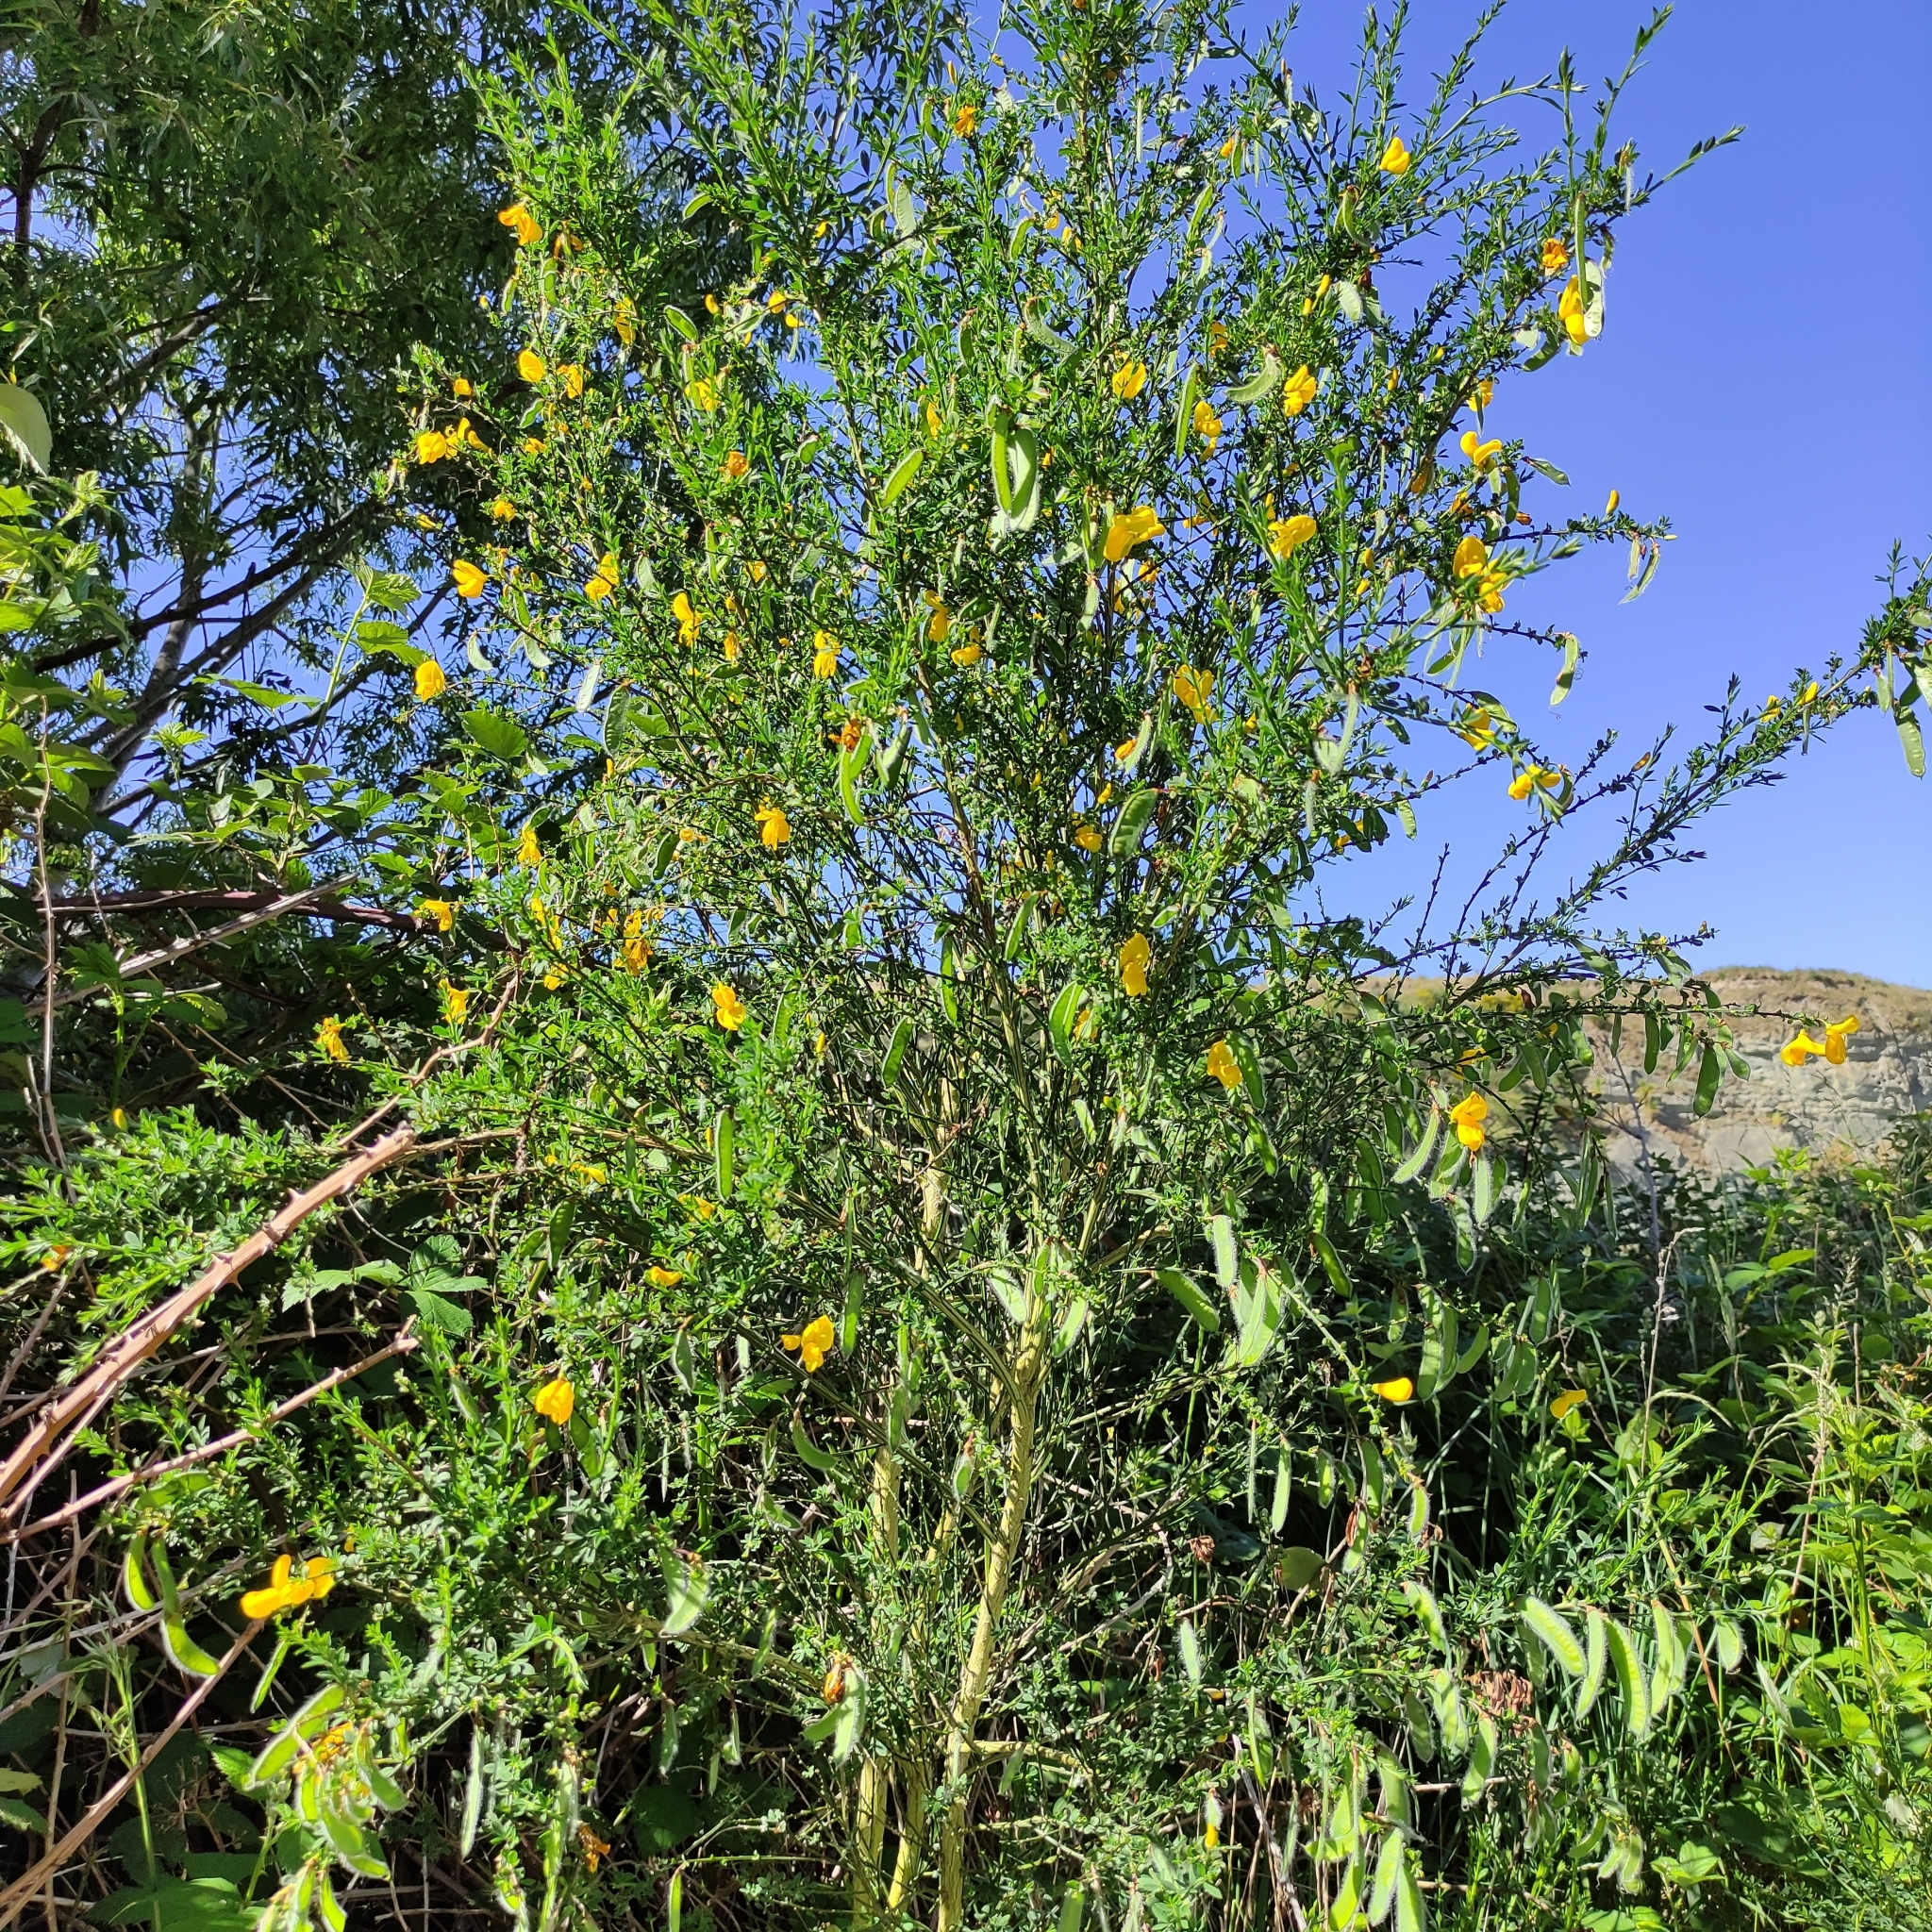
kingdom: Plantae
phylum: Tracheophyta
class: Magnoliopsida
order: Fabales
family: Fabaceae
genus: Cytisus
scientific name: Cytisus scoparius
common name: Scotch broom
